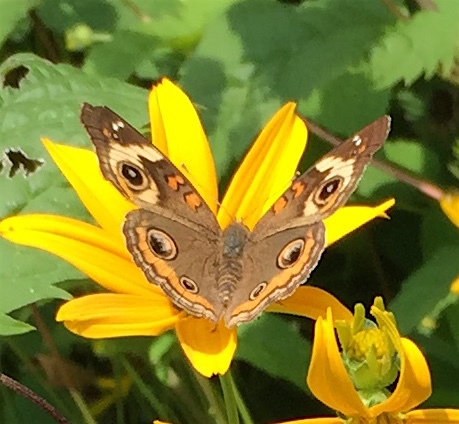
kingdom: Animalia
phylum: Arthropoda
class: Insecta
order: Lepidoptera
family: Nymphalidae
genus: Junonia
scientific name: Junonia coenia
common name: Common buckeye
